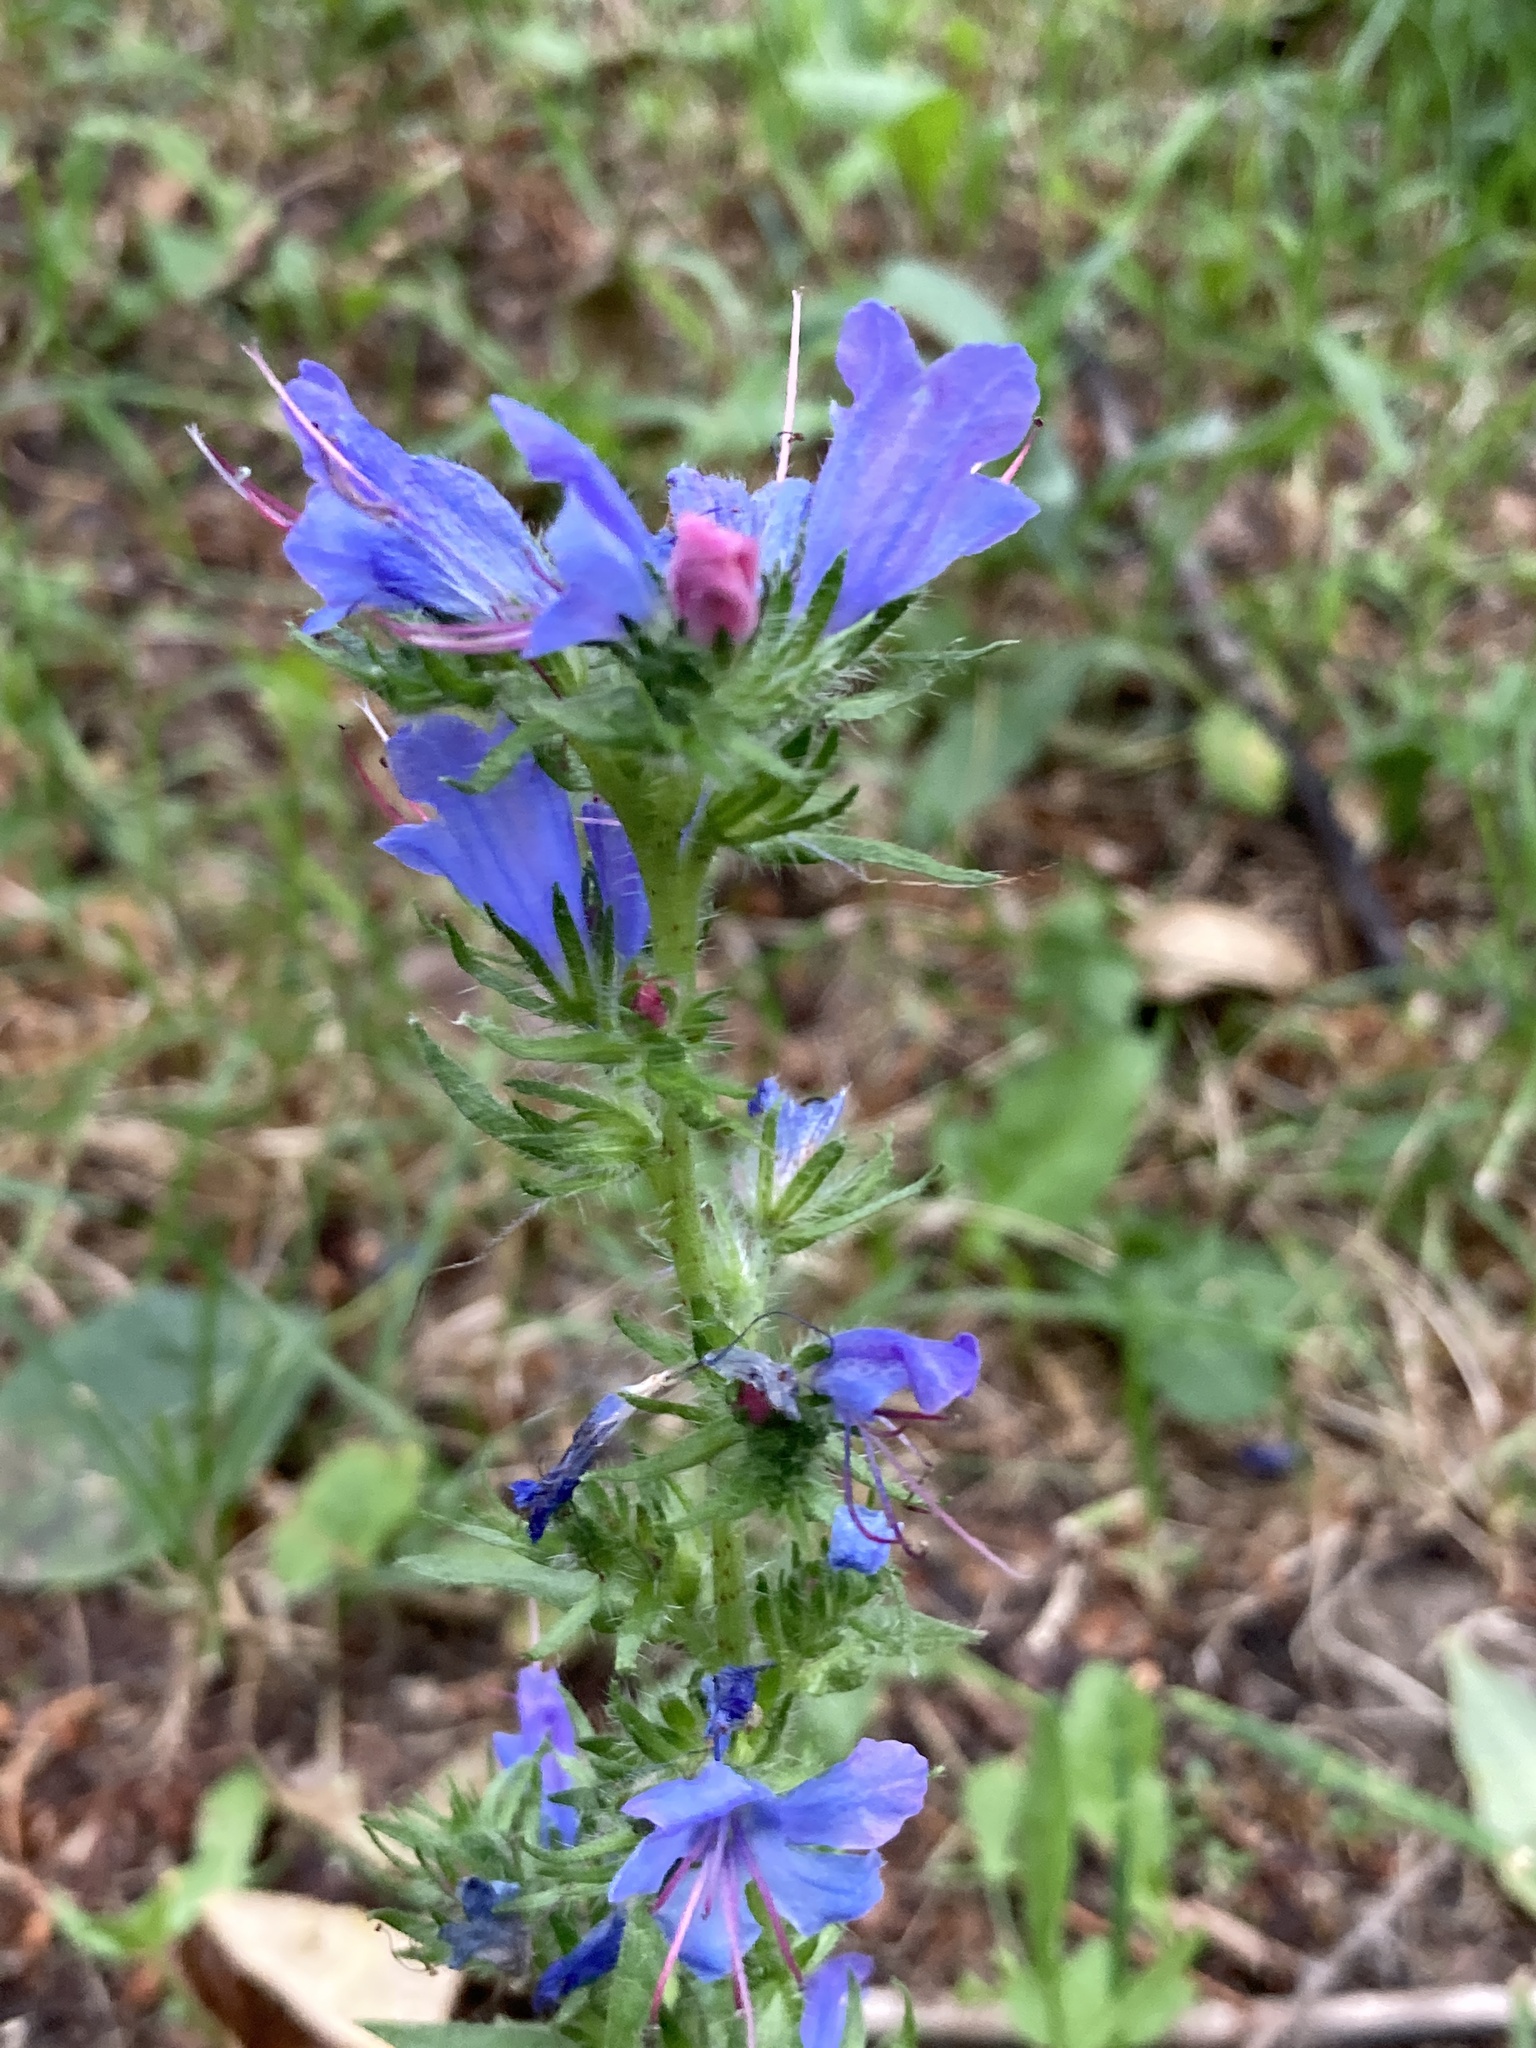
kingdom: Plantae
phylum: Tracheophyta
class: Magnoliopsida
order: Boraginales
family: Boraginaceae
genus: Echium
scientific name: Echium vulgare
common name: Common viper's bugloss
